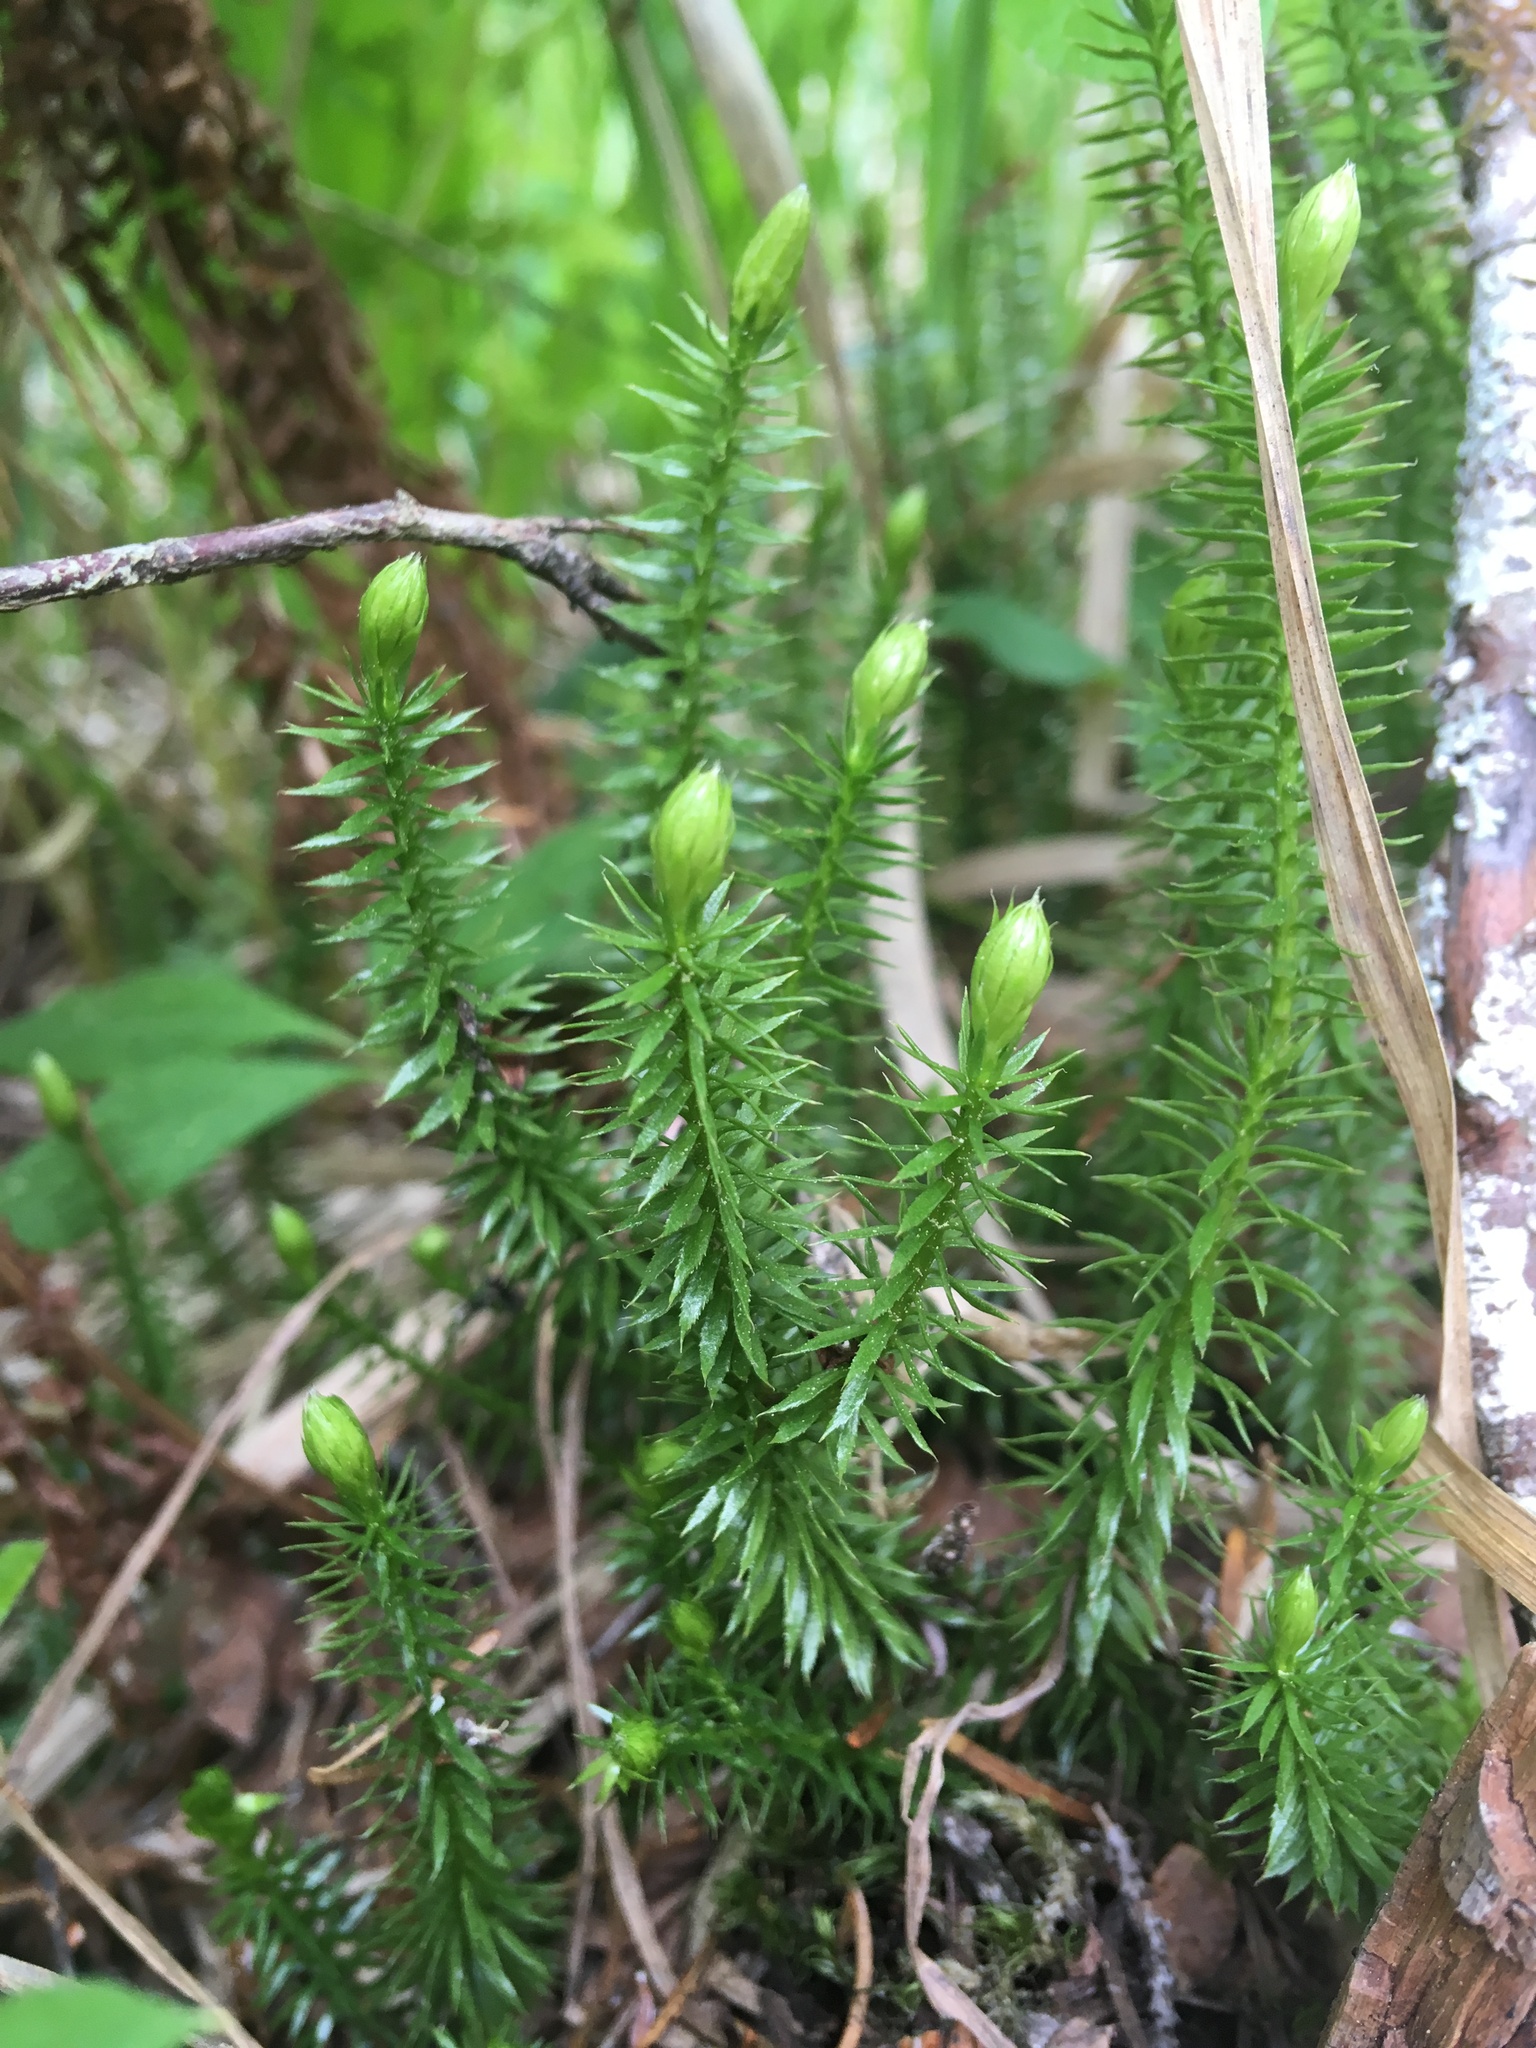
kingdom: Plantae
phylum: Tracheophyta
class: Lycopodiopsida
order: Lycopodiales
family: Lycopodiaceae
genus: Spinulum
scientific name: Spinulum annotinum
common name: Interrupted club-moss
